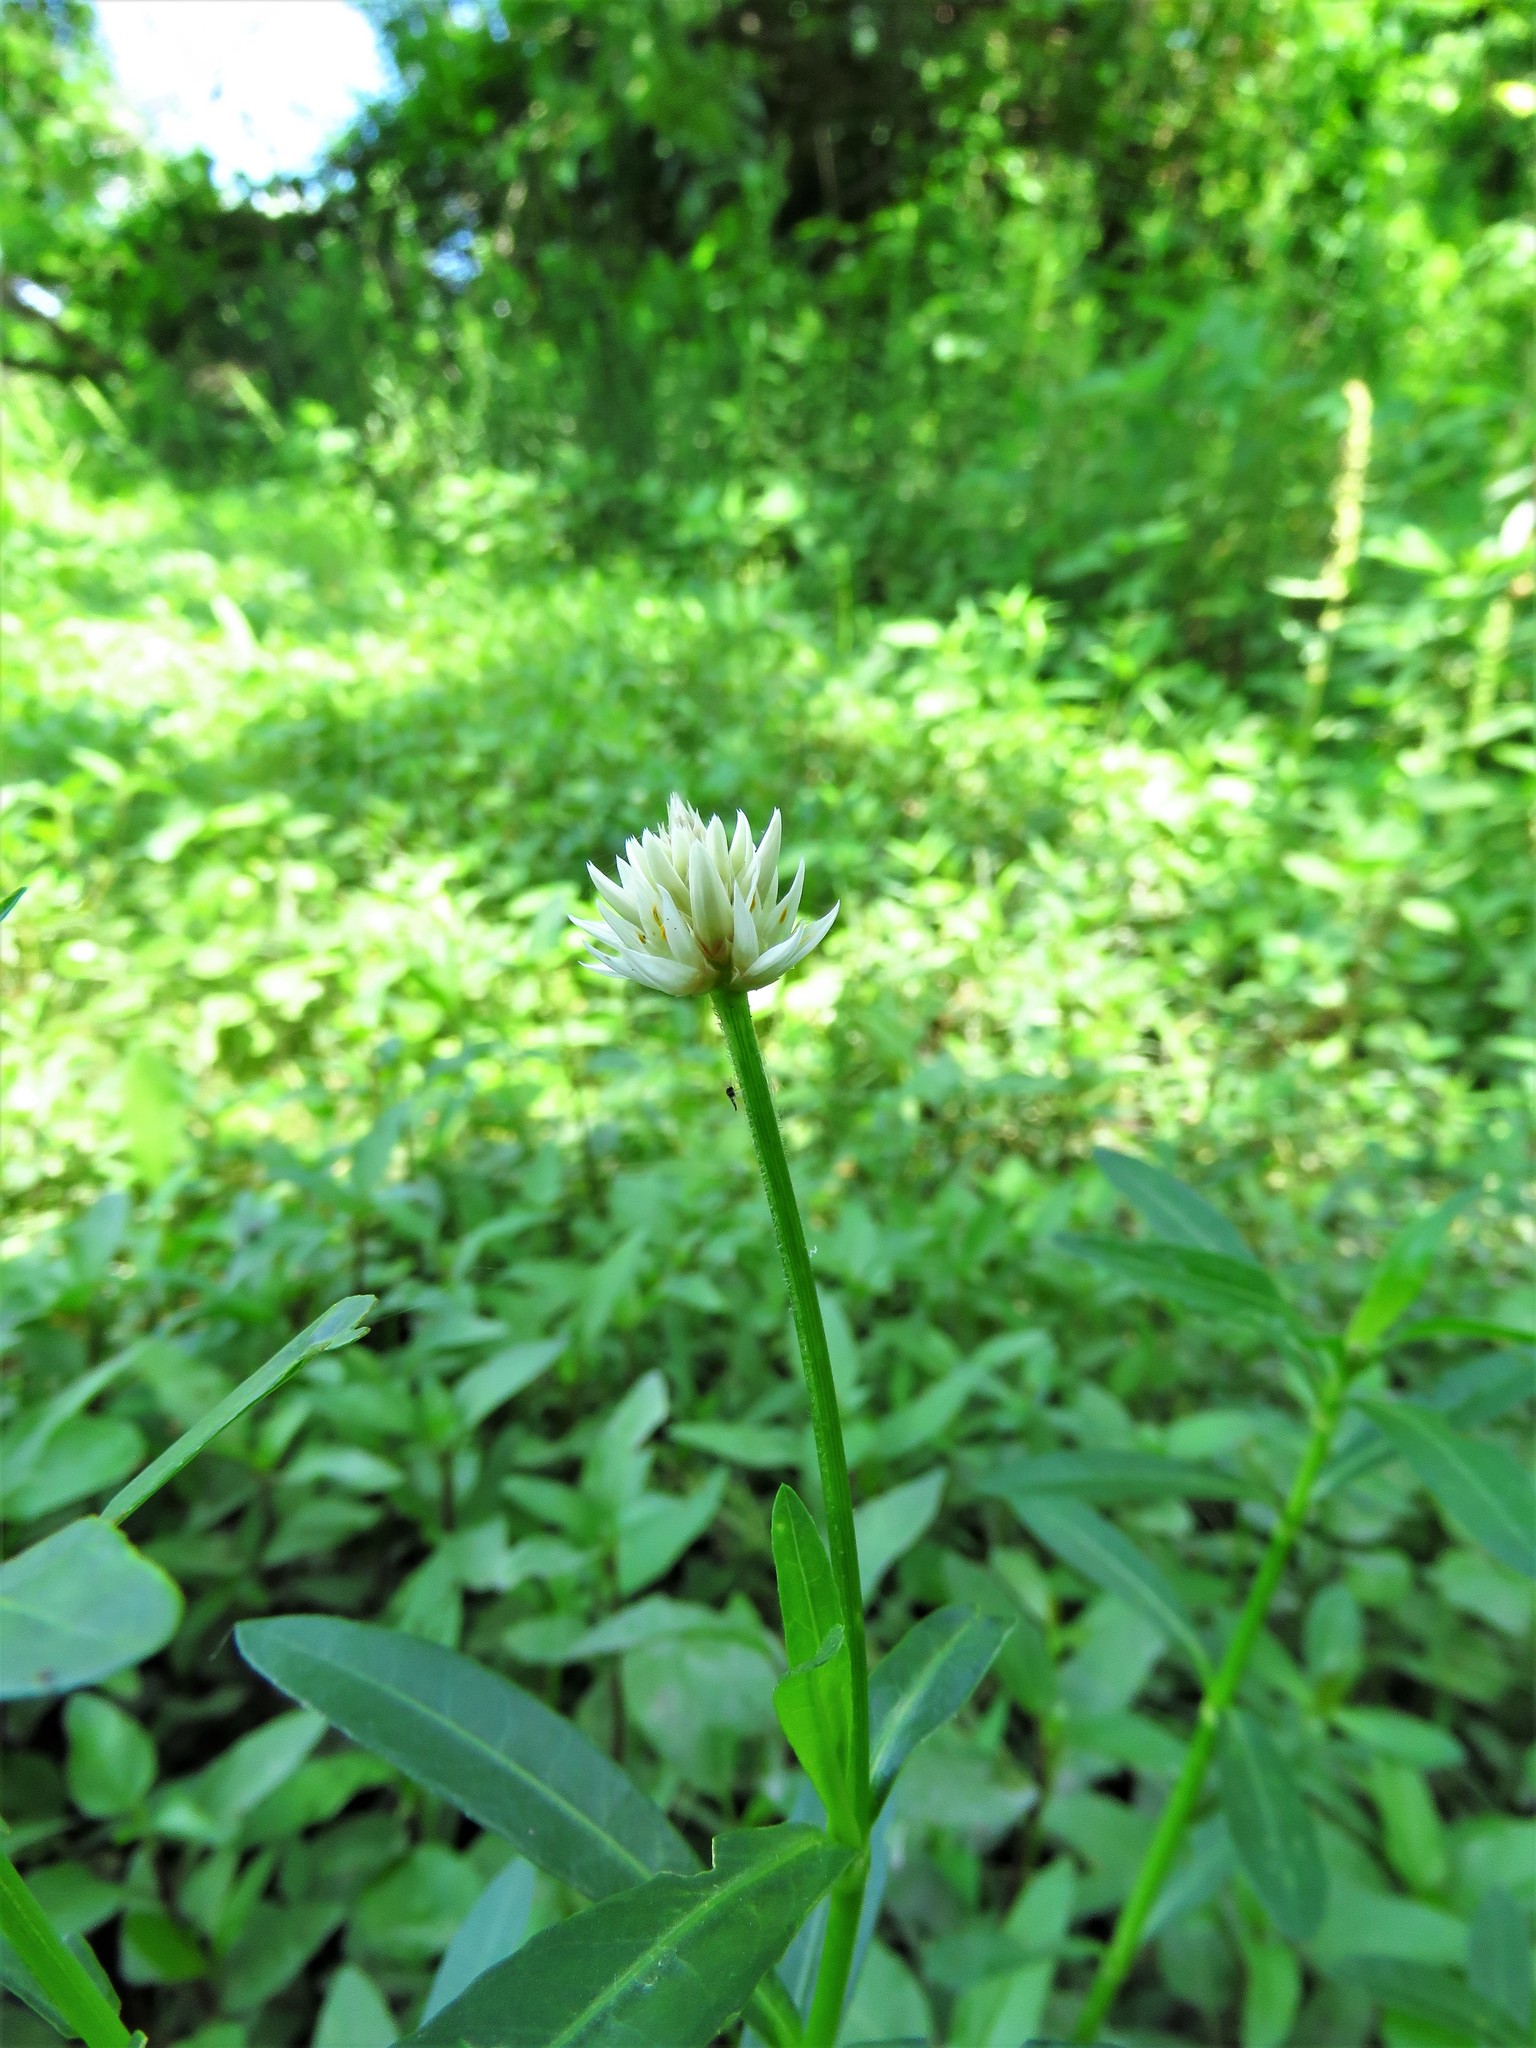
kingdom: Plantae
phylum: Tracheophyta
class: Magnoliopsida
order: Caryophyllales
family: Amaranthaceae
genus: Alternanthera
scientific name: Alternanthera philoxeroides
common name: Alligatorweed
